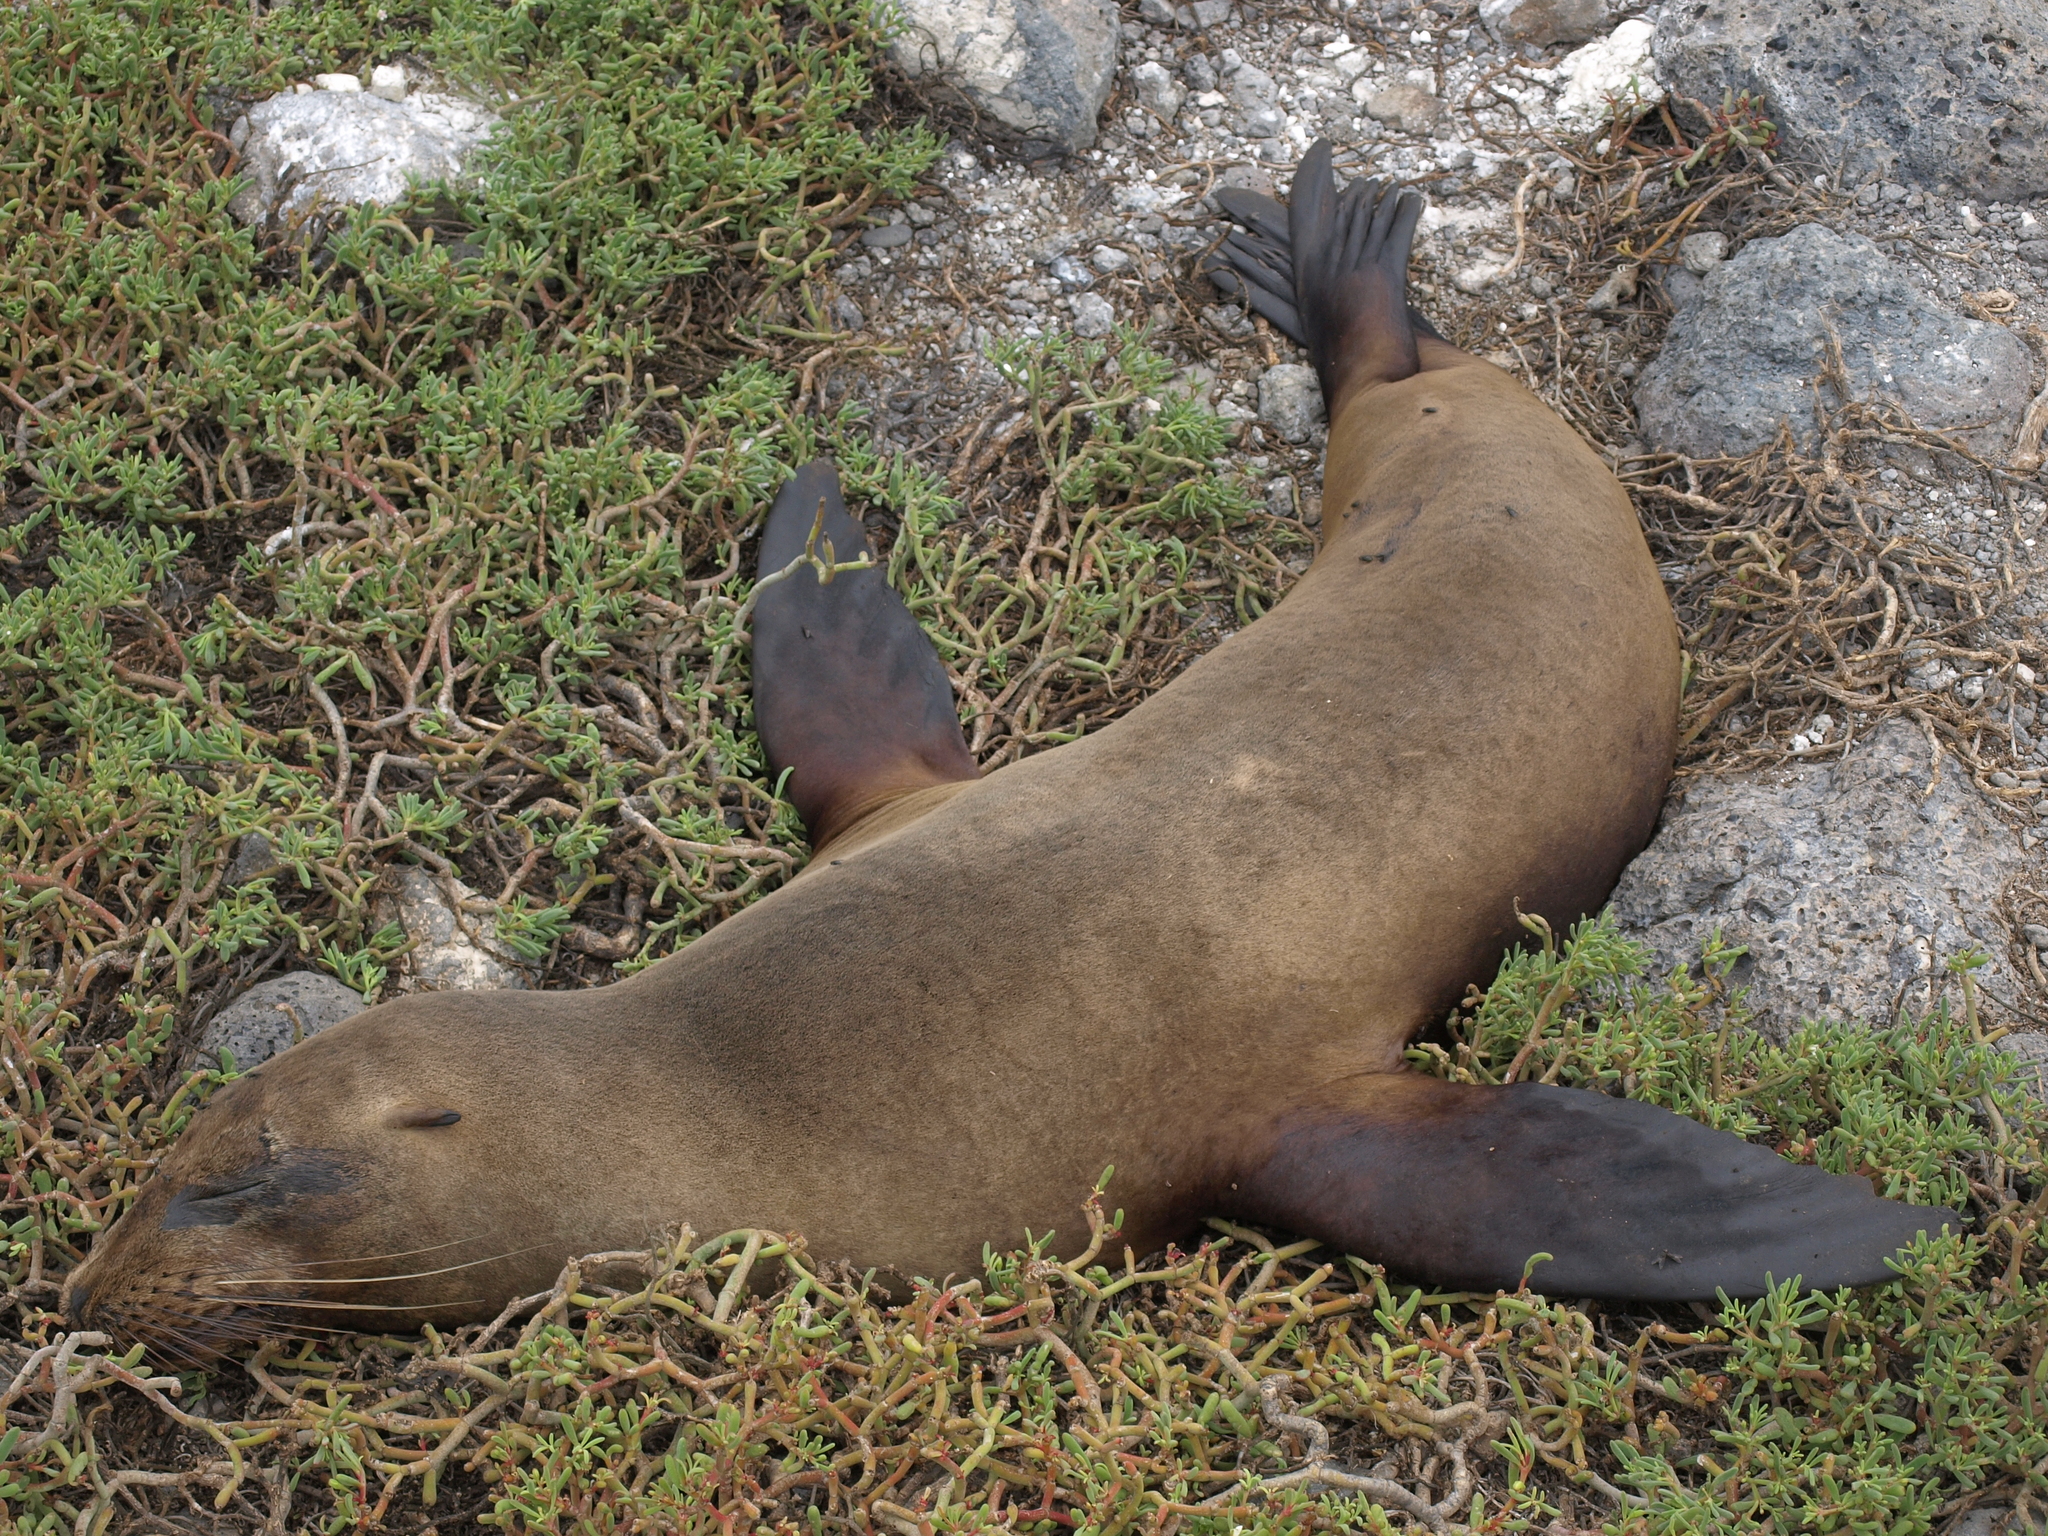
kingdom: Animalia
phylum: Chordata
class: Mammalia
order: Carnivora
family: Otariidae
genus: Zalophus
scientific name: Zalophus wollebaeki
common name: Galapagos sea lion
